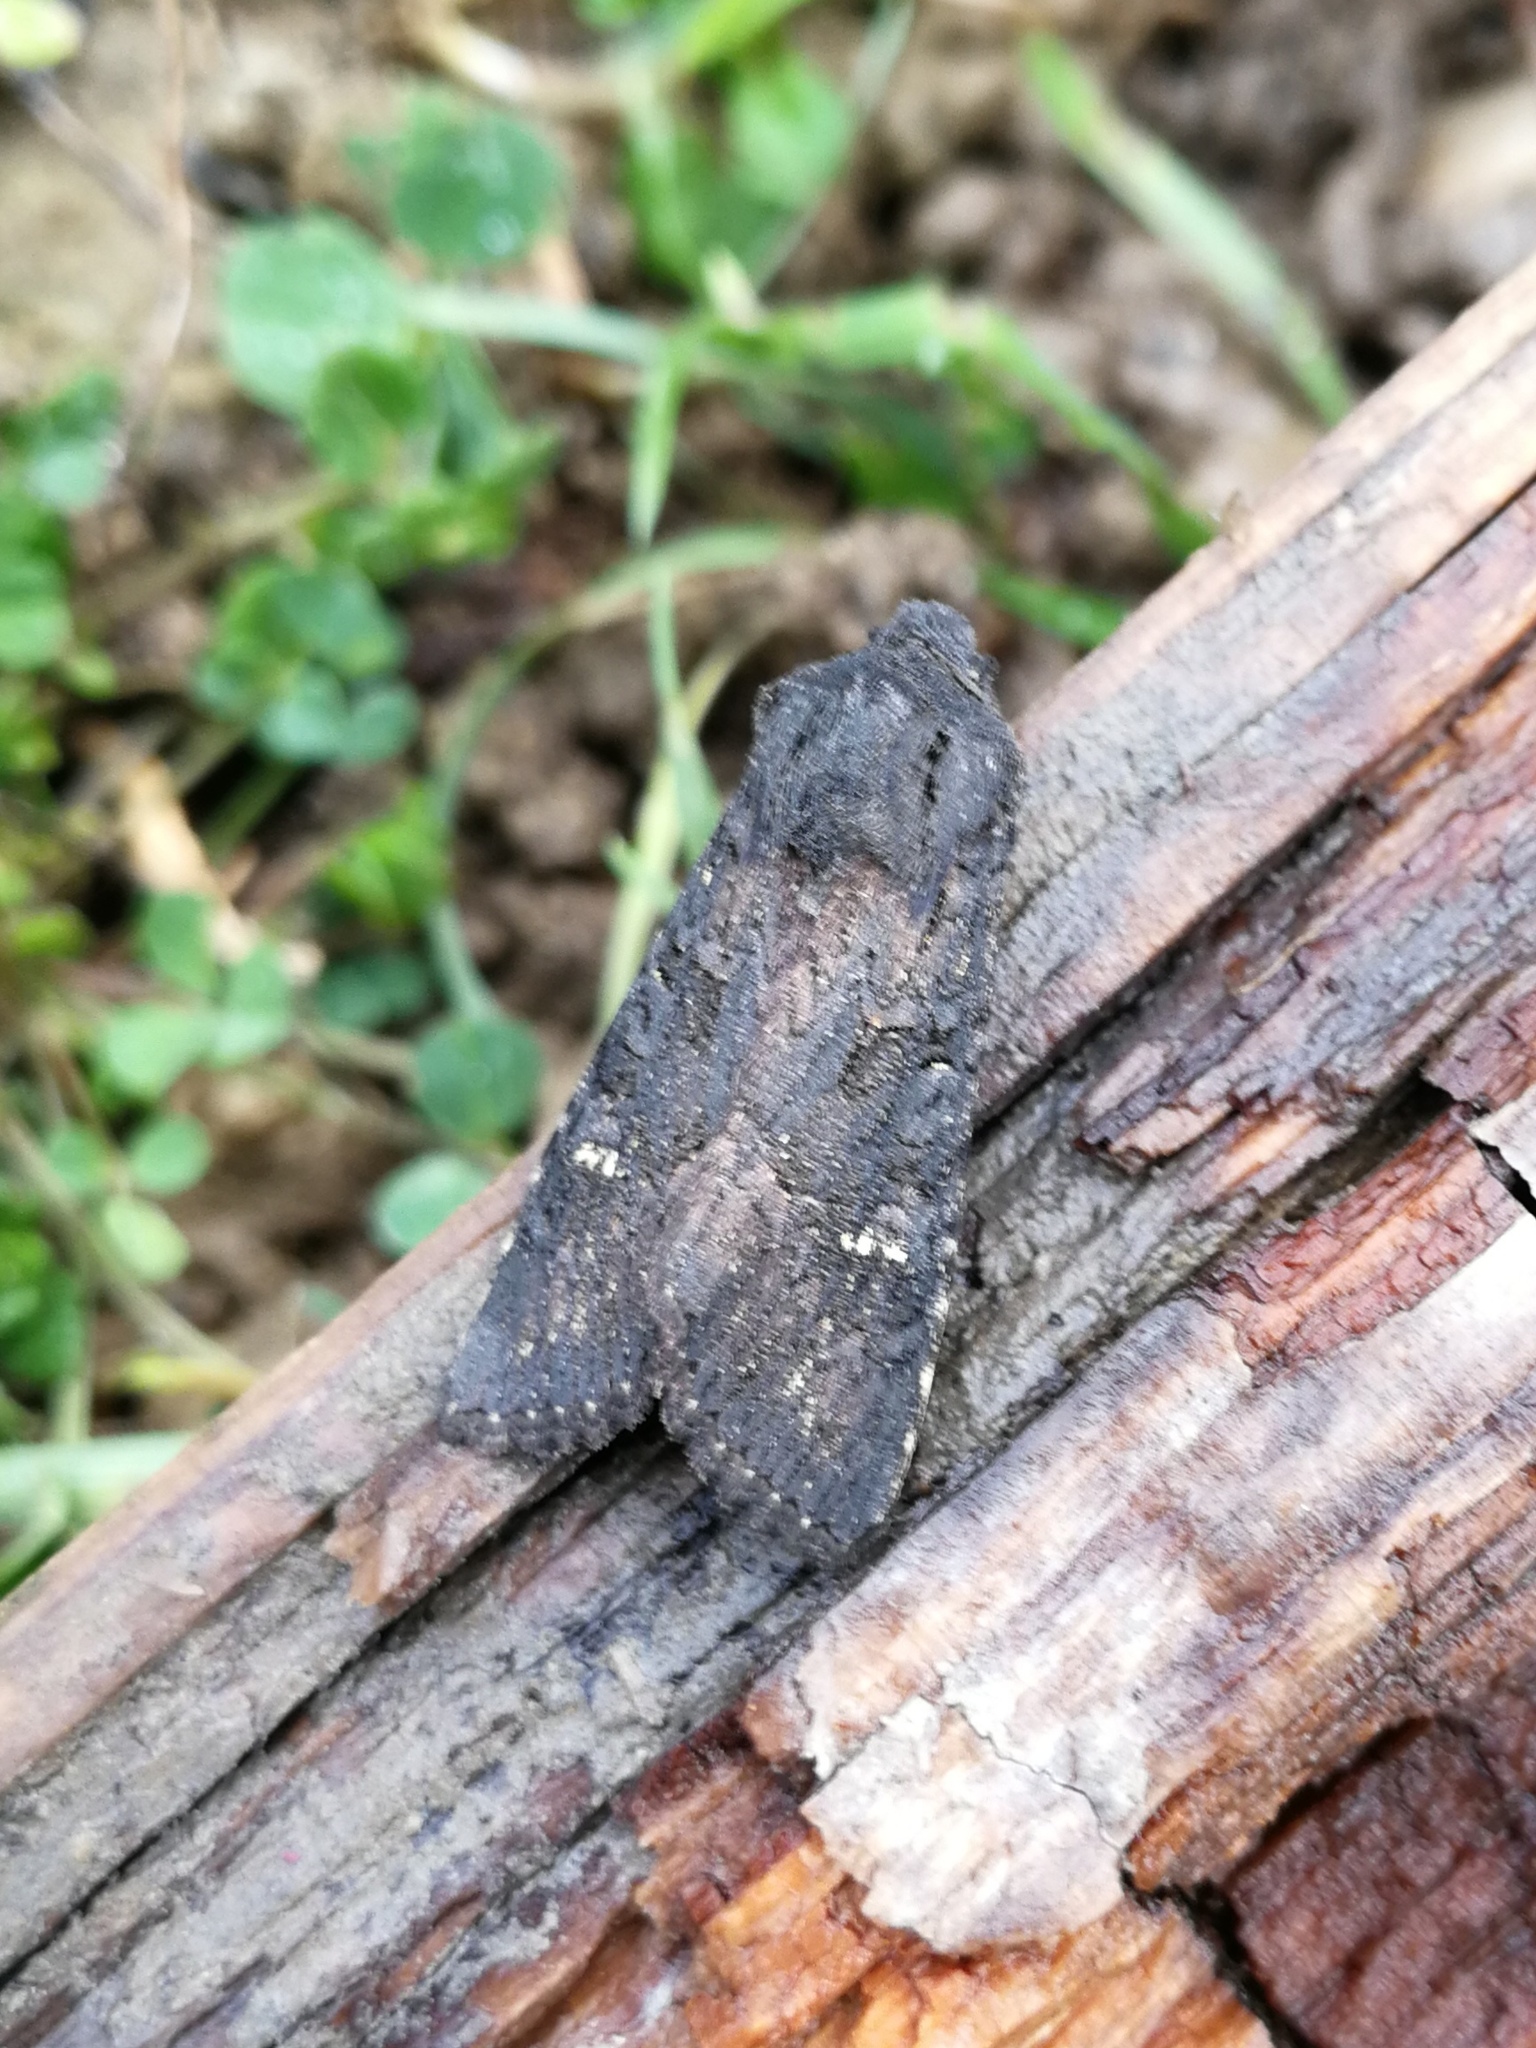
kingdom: Animalia
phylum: Arthropoda
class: Insecta
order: Lepidoptera
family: Noctuidae
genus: Aporophyla
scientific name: Aporophyla nigra
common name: Black rustic
